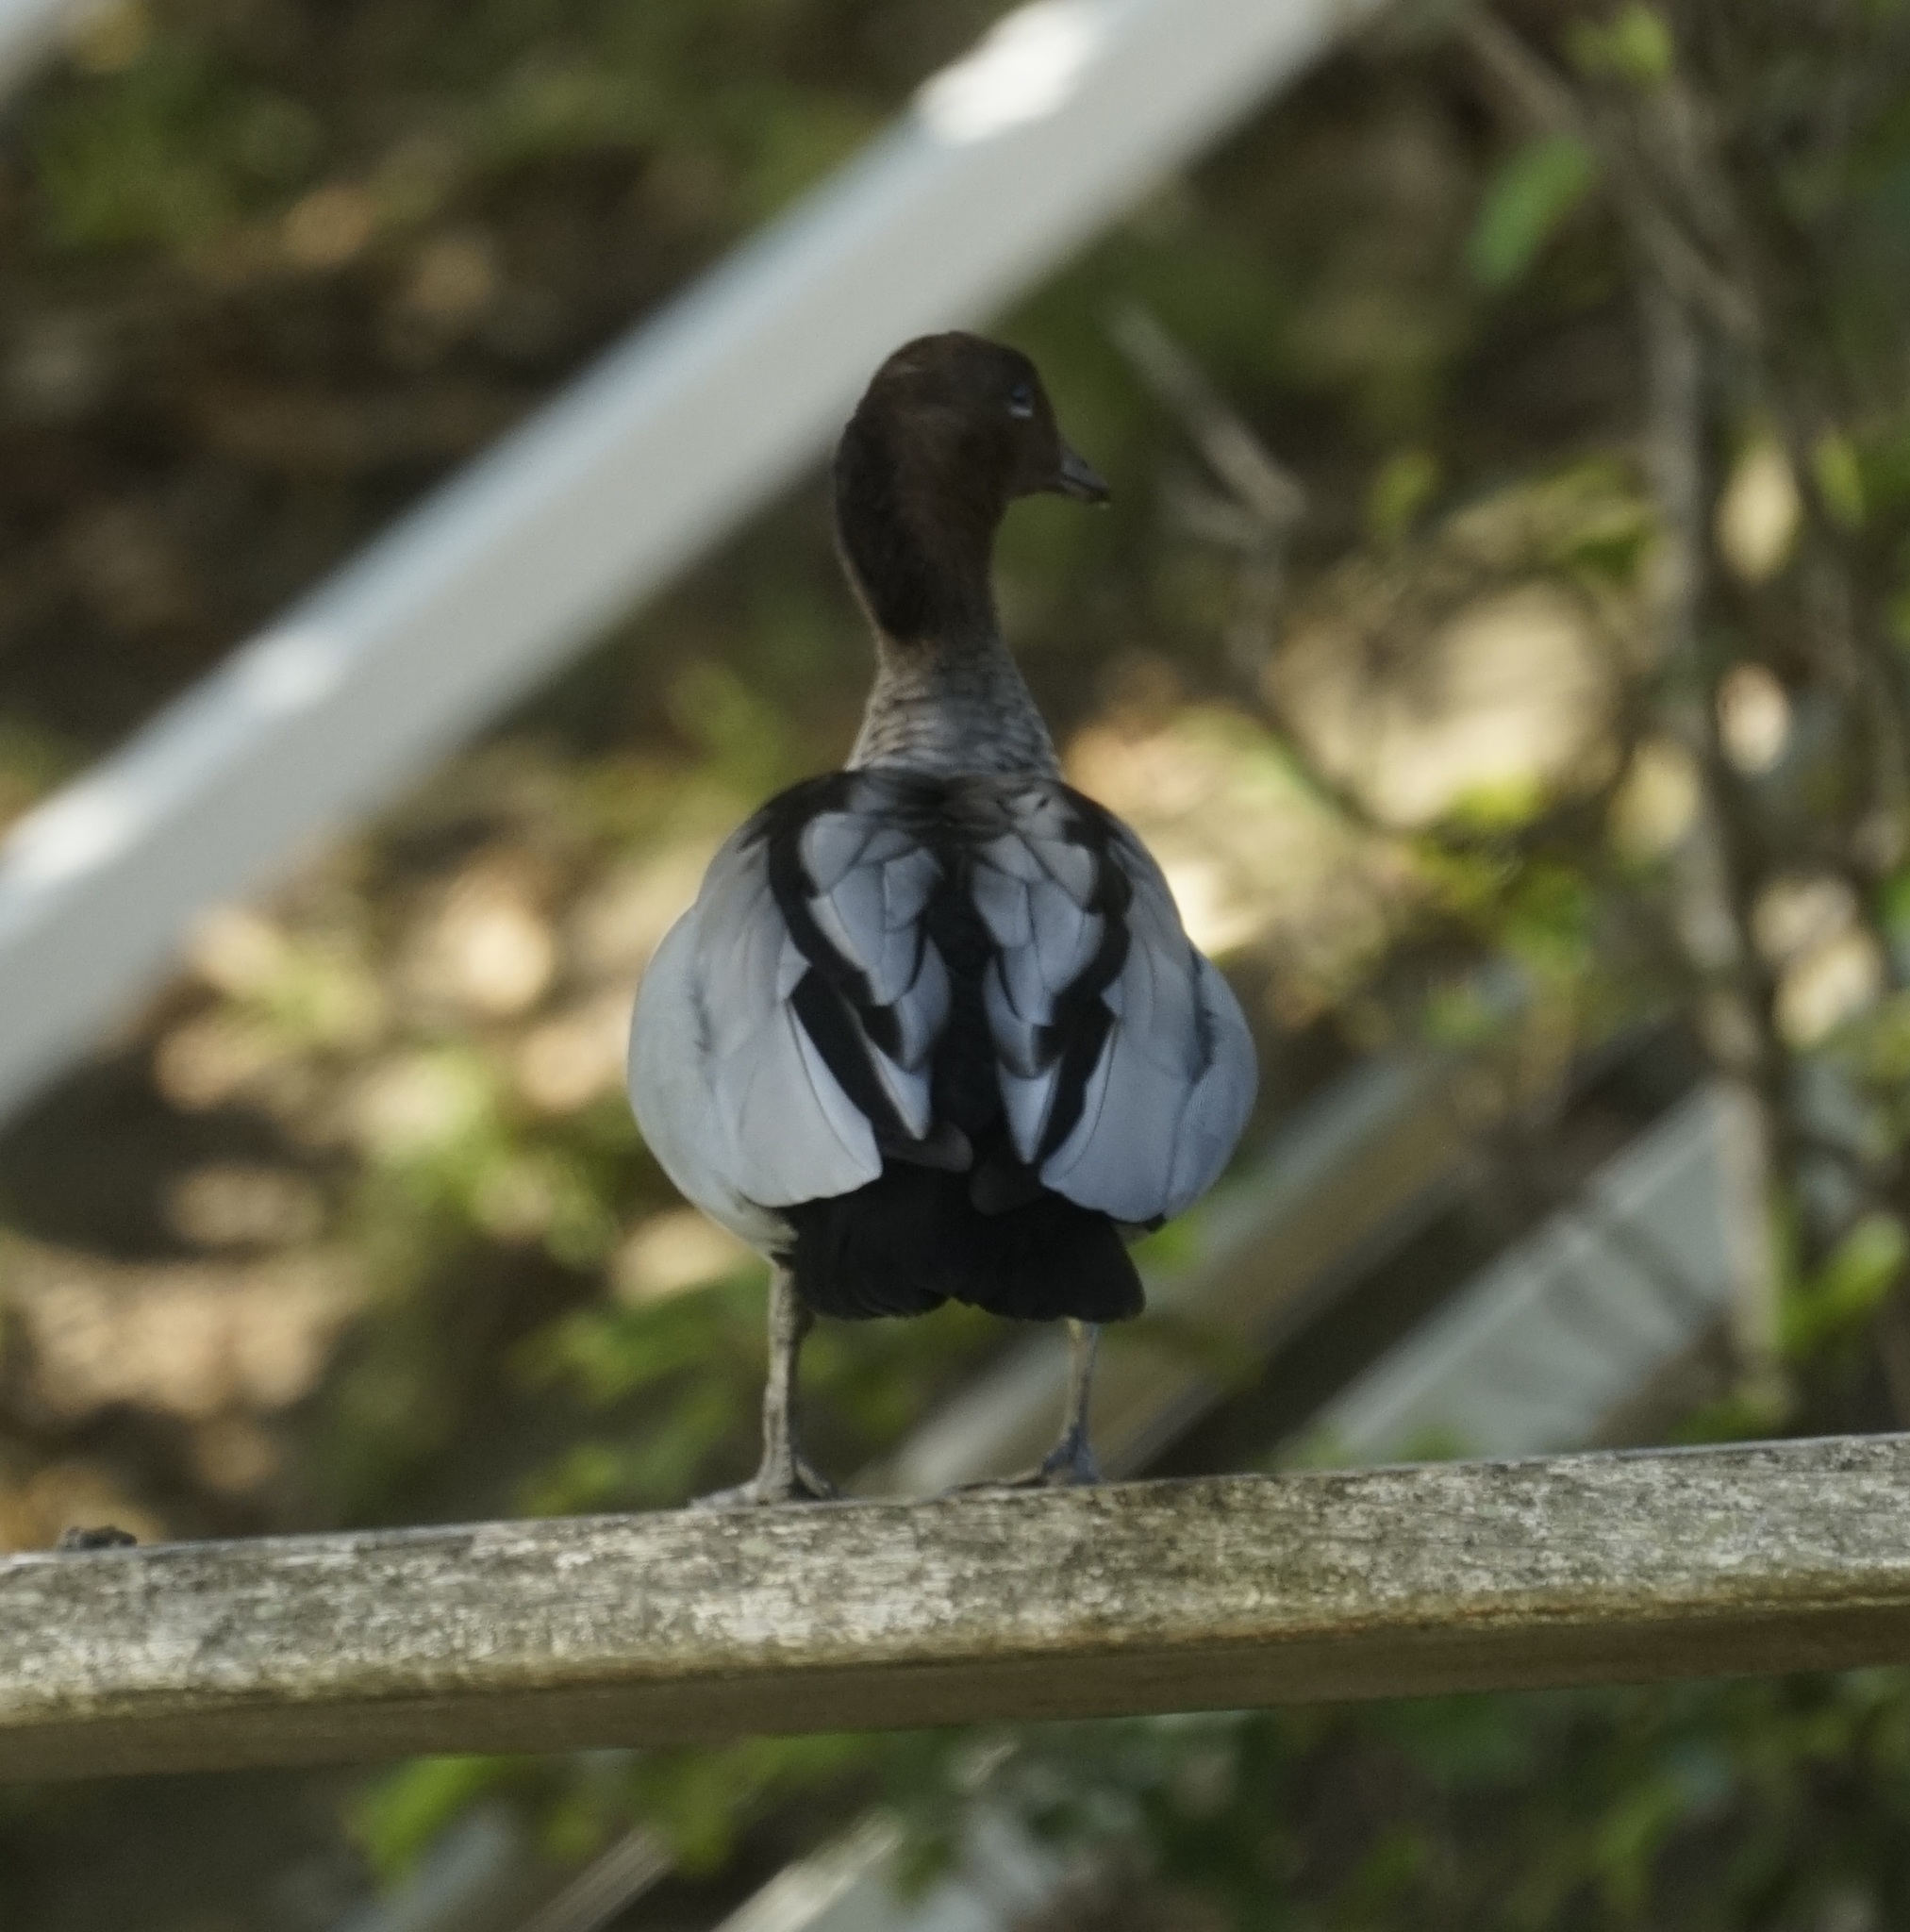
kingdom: Animalia
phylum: Chordata
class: Aves
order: Anseriformes
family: Anatidae
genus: Chenonetta
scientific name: Chenonetta jubata
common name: Maned duck
